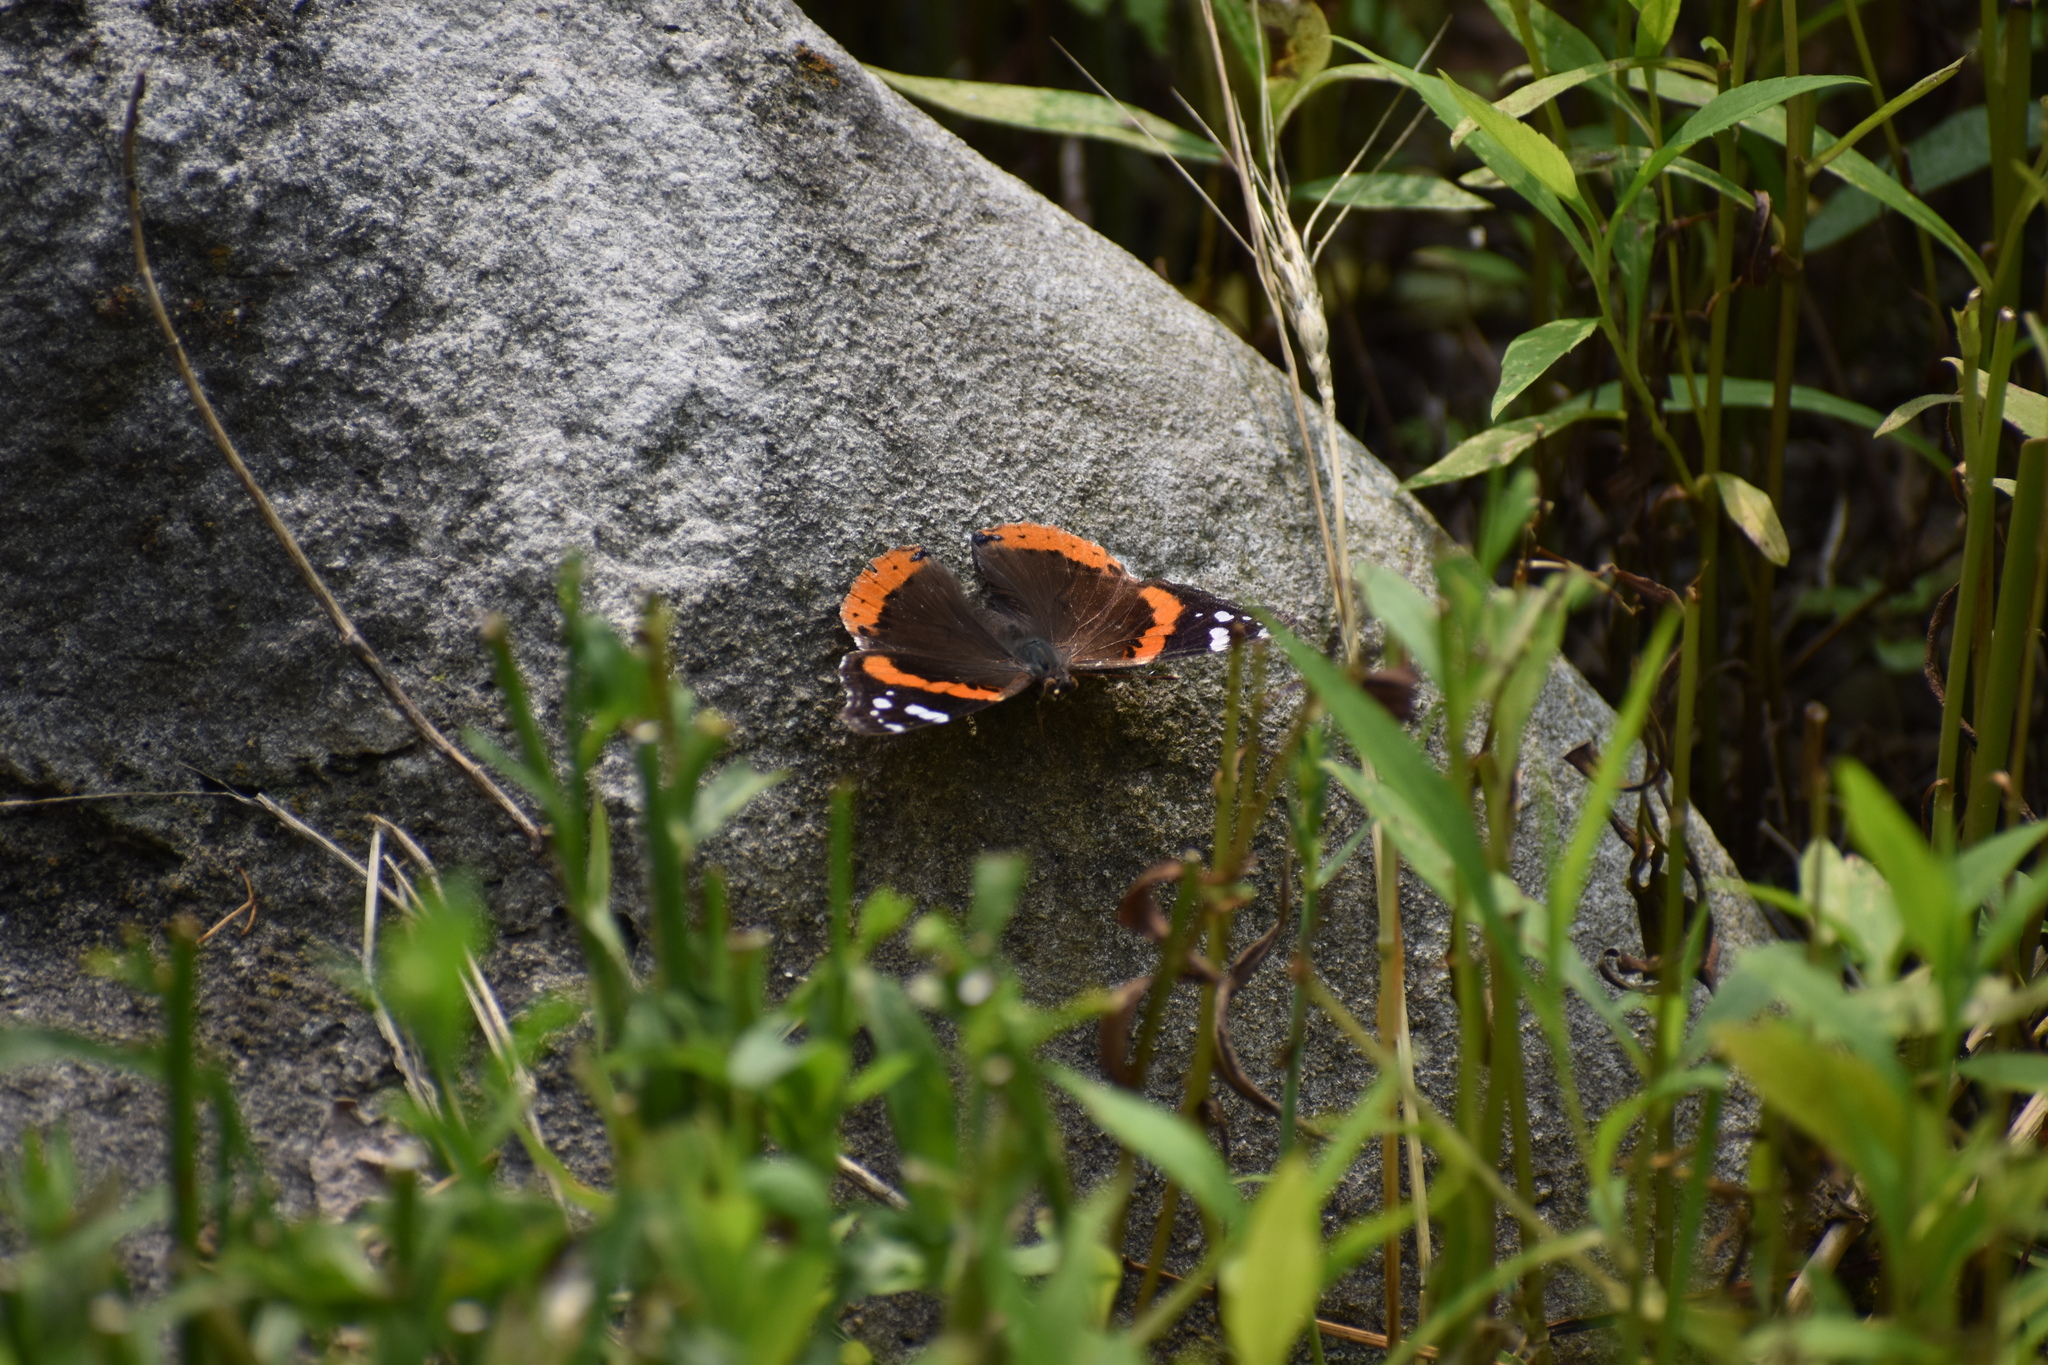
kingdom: Animalia
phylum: Arthropoda
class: Insecta
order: Lepidoptera
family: Nymphalidae
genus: Vanessa
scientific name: Vanessa atalanta
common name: Red admiral
